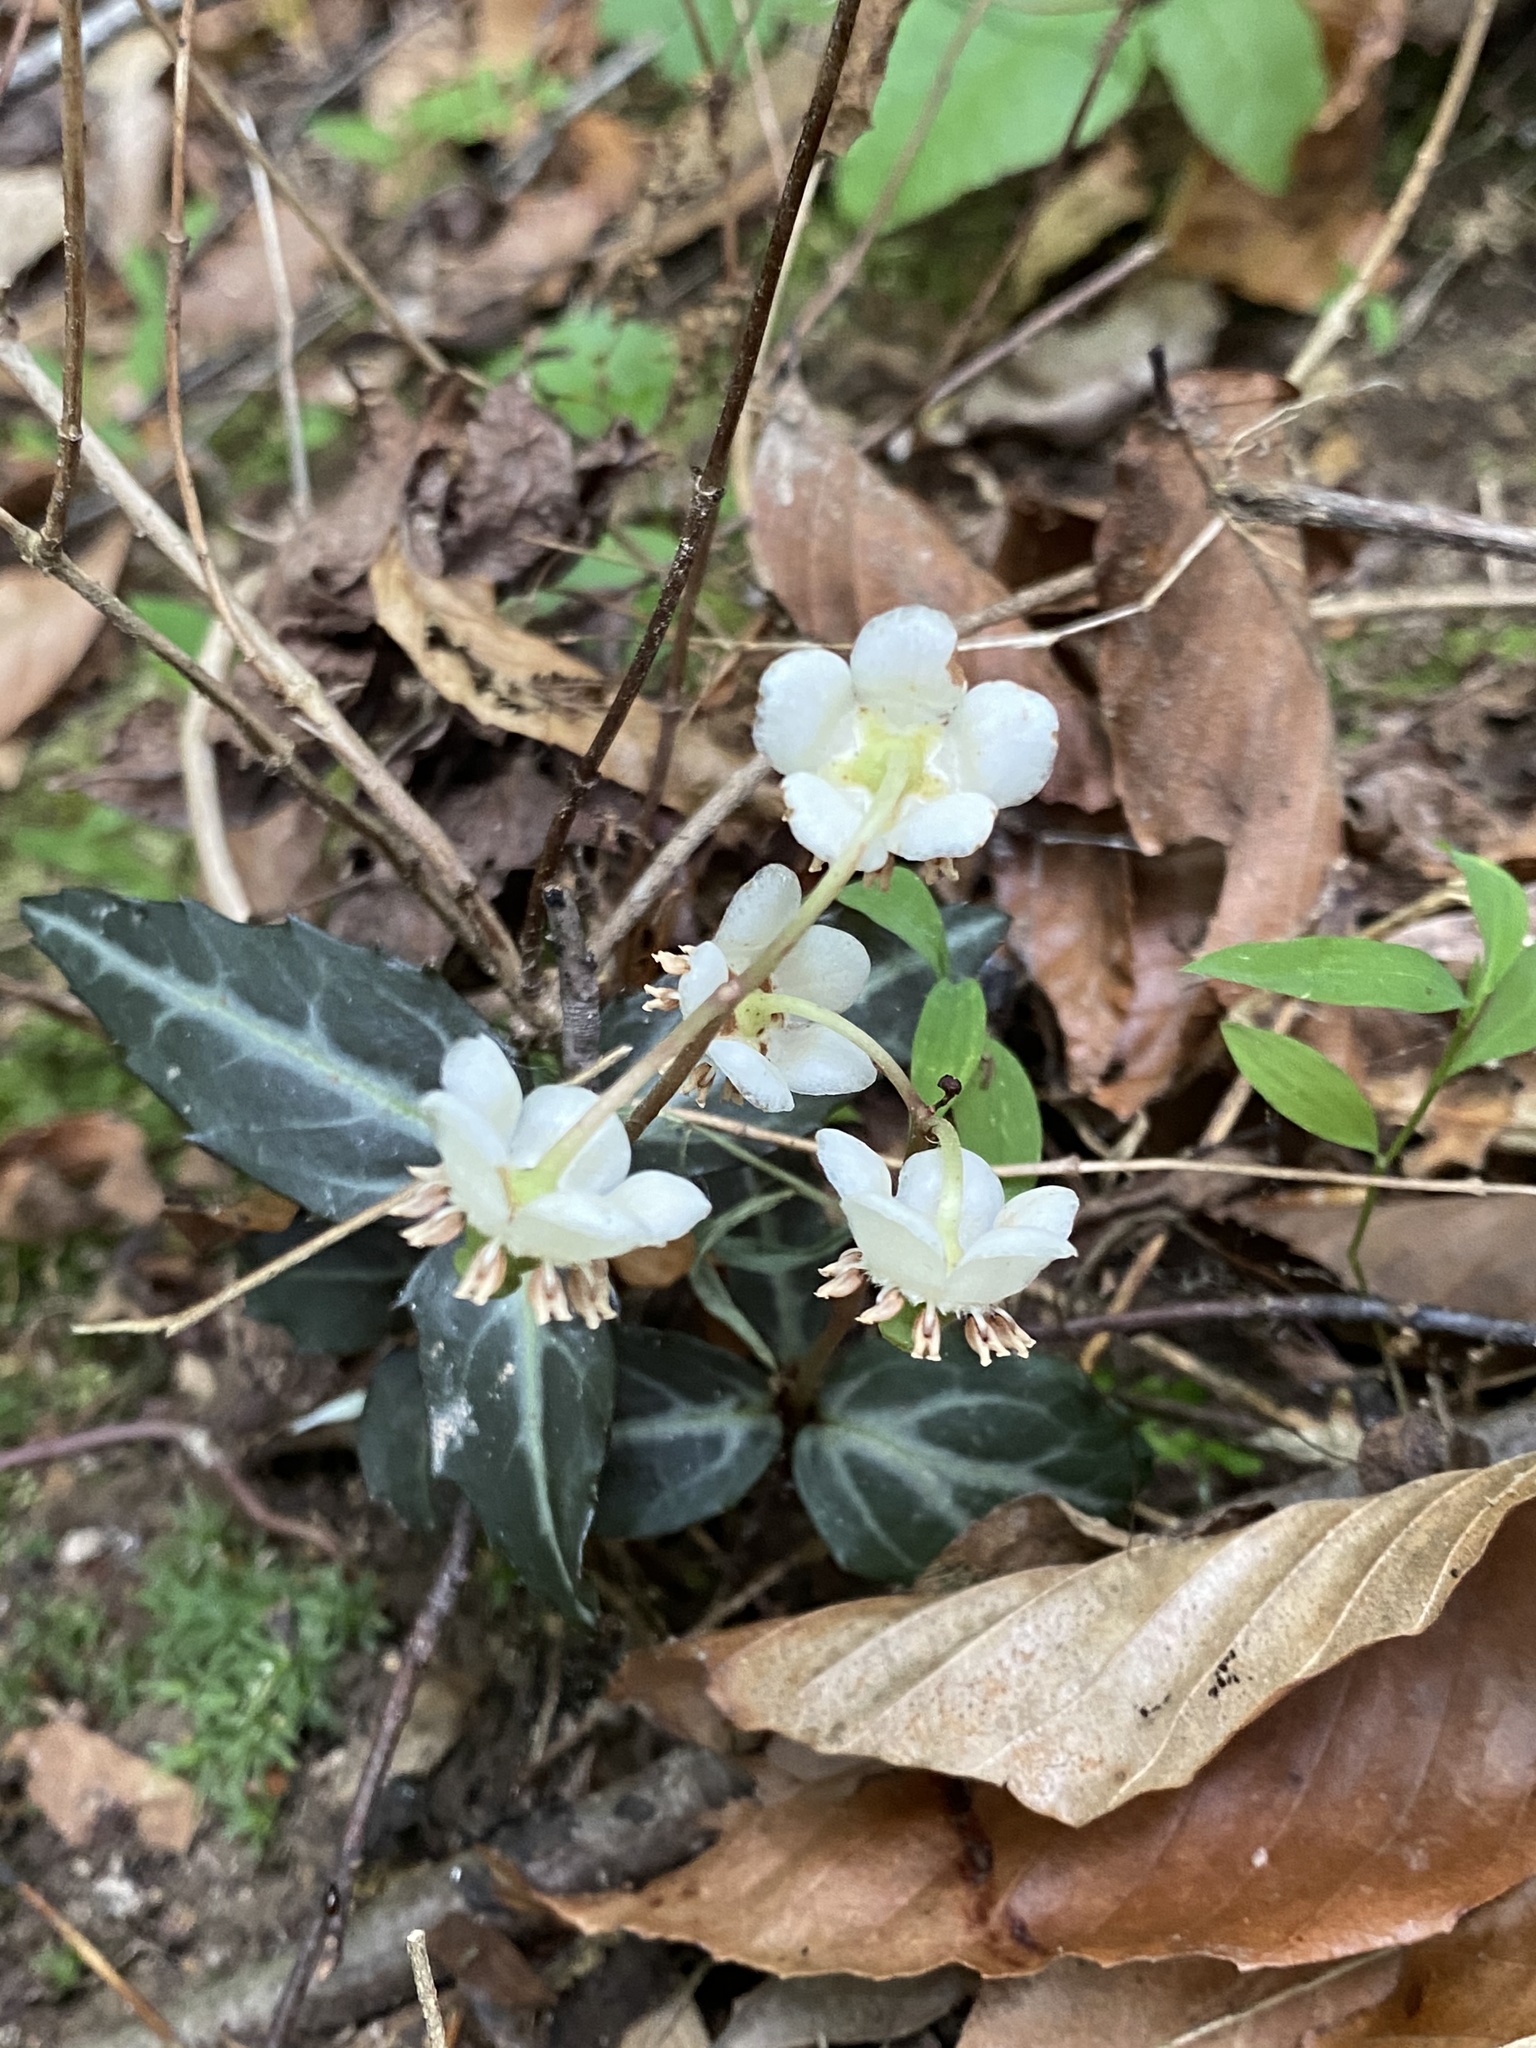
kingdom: Plantae
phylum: Tracheophyta
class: Magnoliopsida
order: Ericales
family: Ericaceae
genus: Chimaphila
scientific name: Chimaphila maculata
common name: Spotted pipsissewa
